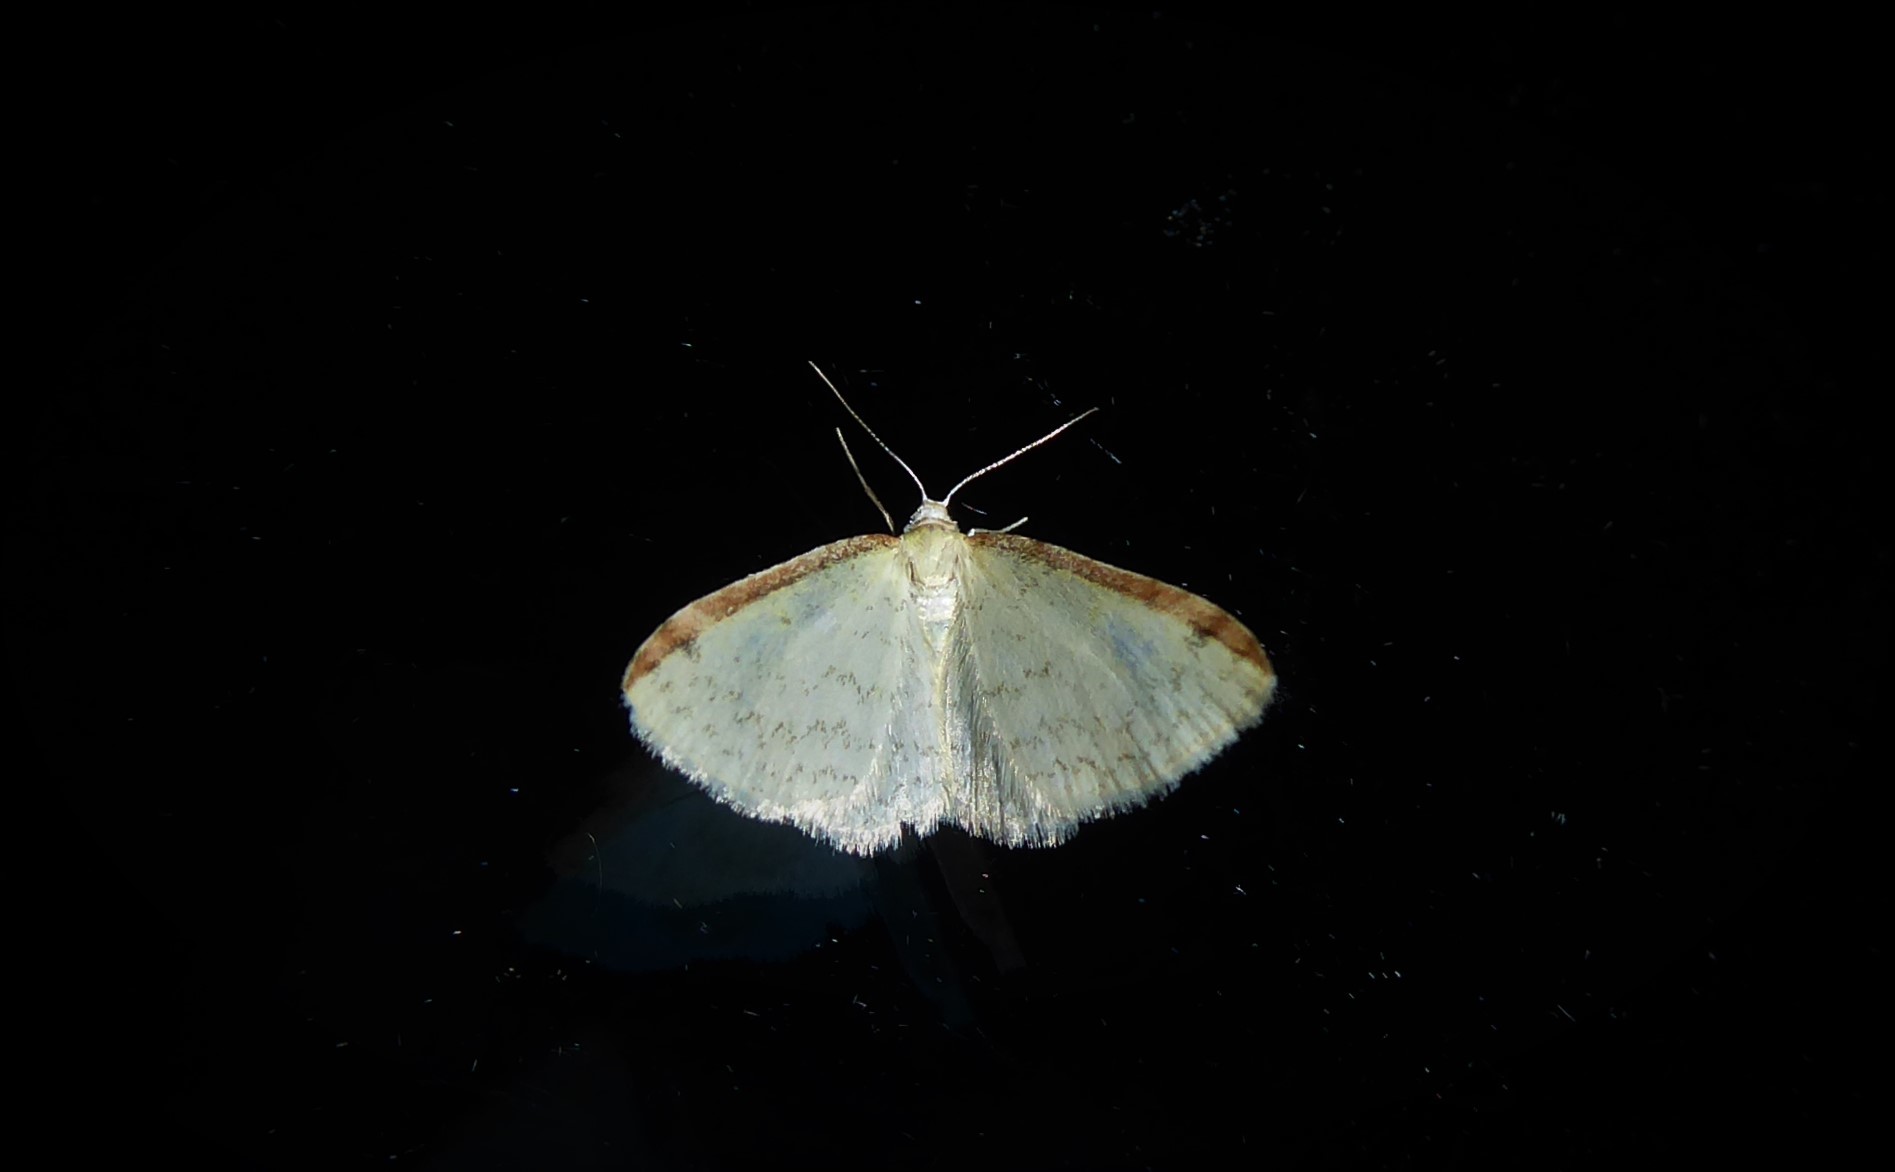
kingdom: Animalia
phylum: Arthropoda
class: Insecta
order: Lepidoptera
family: Geometridae
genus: Epiphryne
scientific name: Epiphryne undosata
